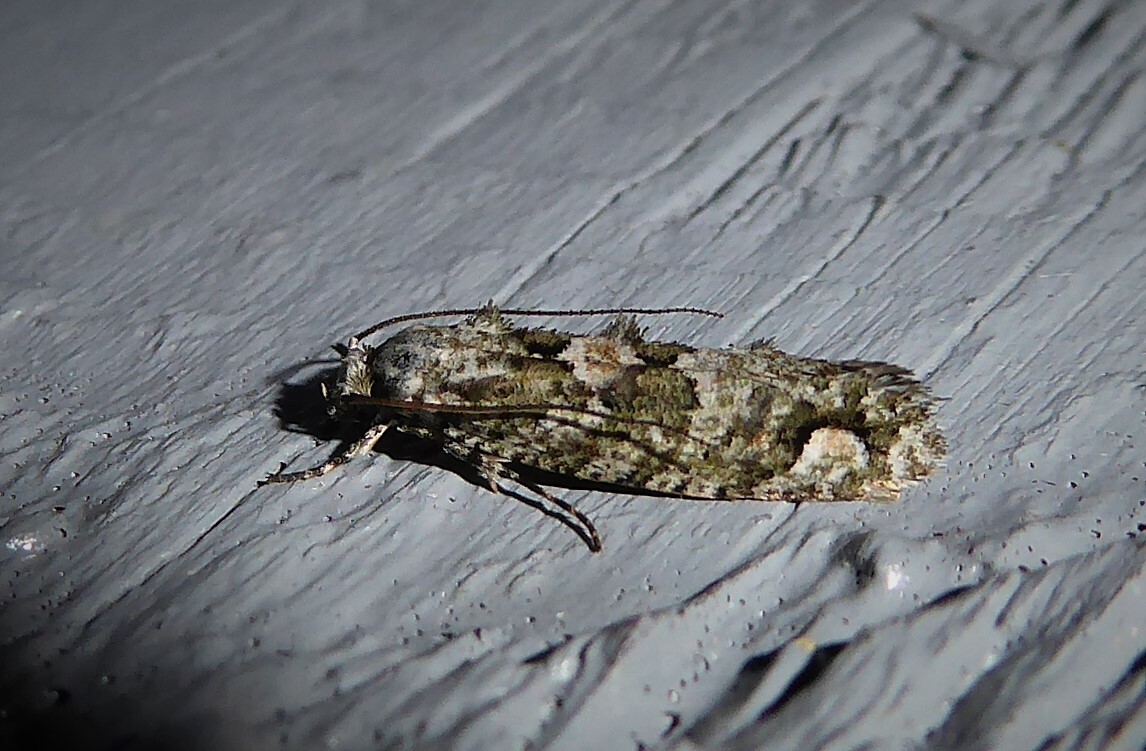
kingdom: Animalia
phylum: Arthropoda
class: Insecta
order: Lepidoptera
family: Tineidae
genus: Lysiphragma
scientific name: Lysiphragma howesii
